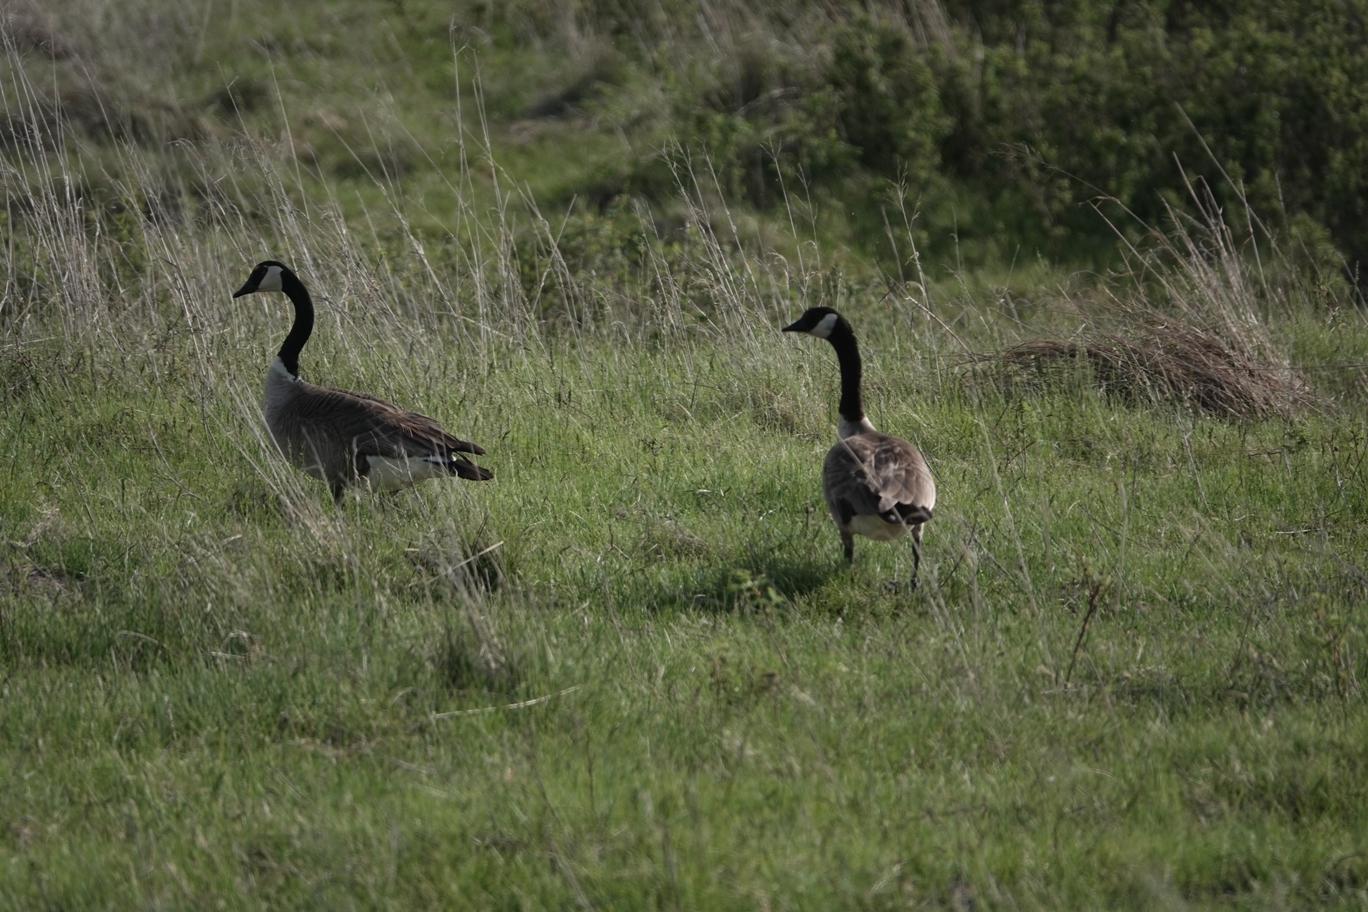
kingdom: Animalia
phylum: Chordata
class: Aves
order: Anseriformes
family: Anatidae
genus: Branta
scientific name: Branta canadensis
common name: Canada goose
